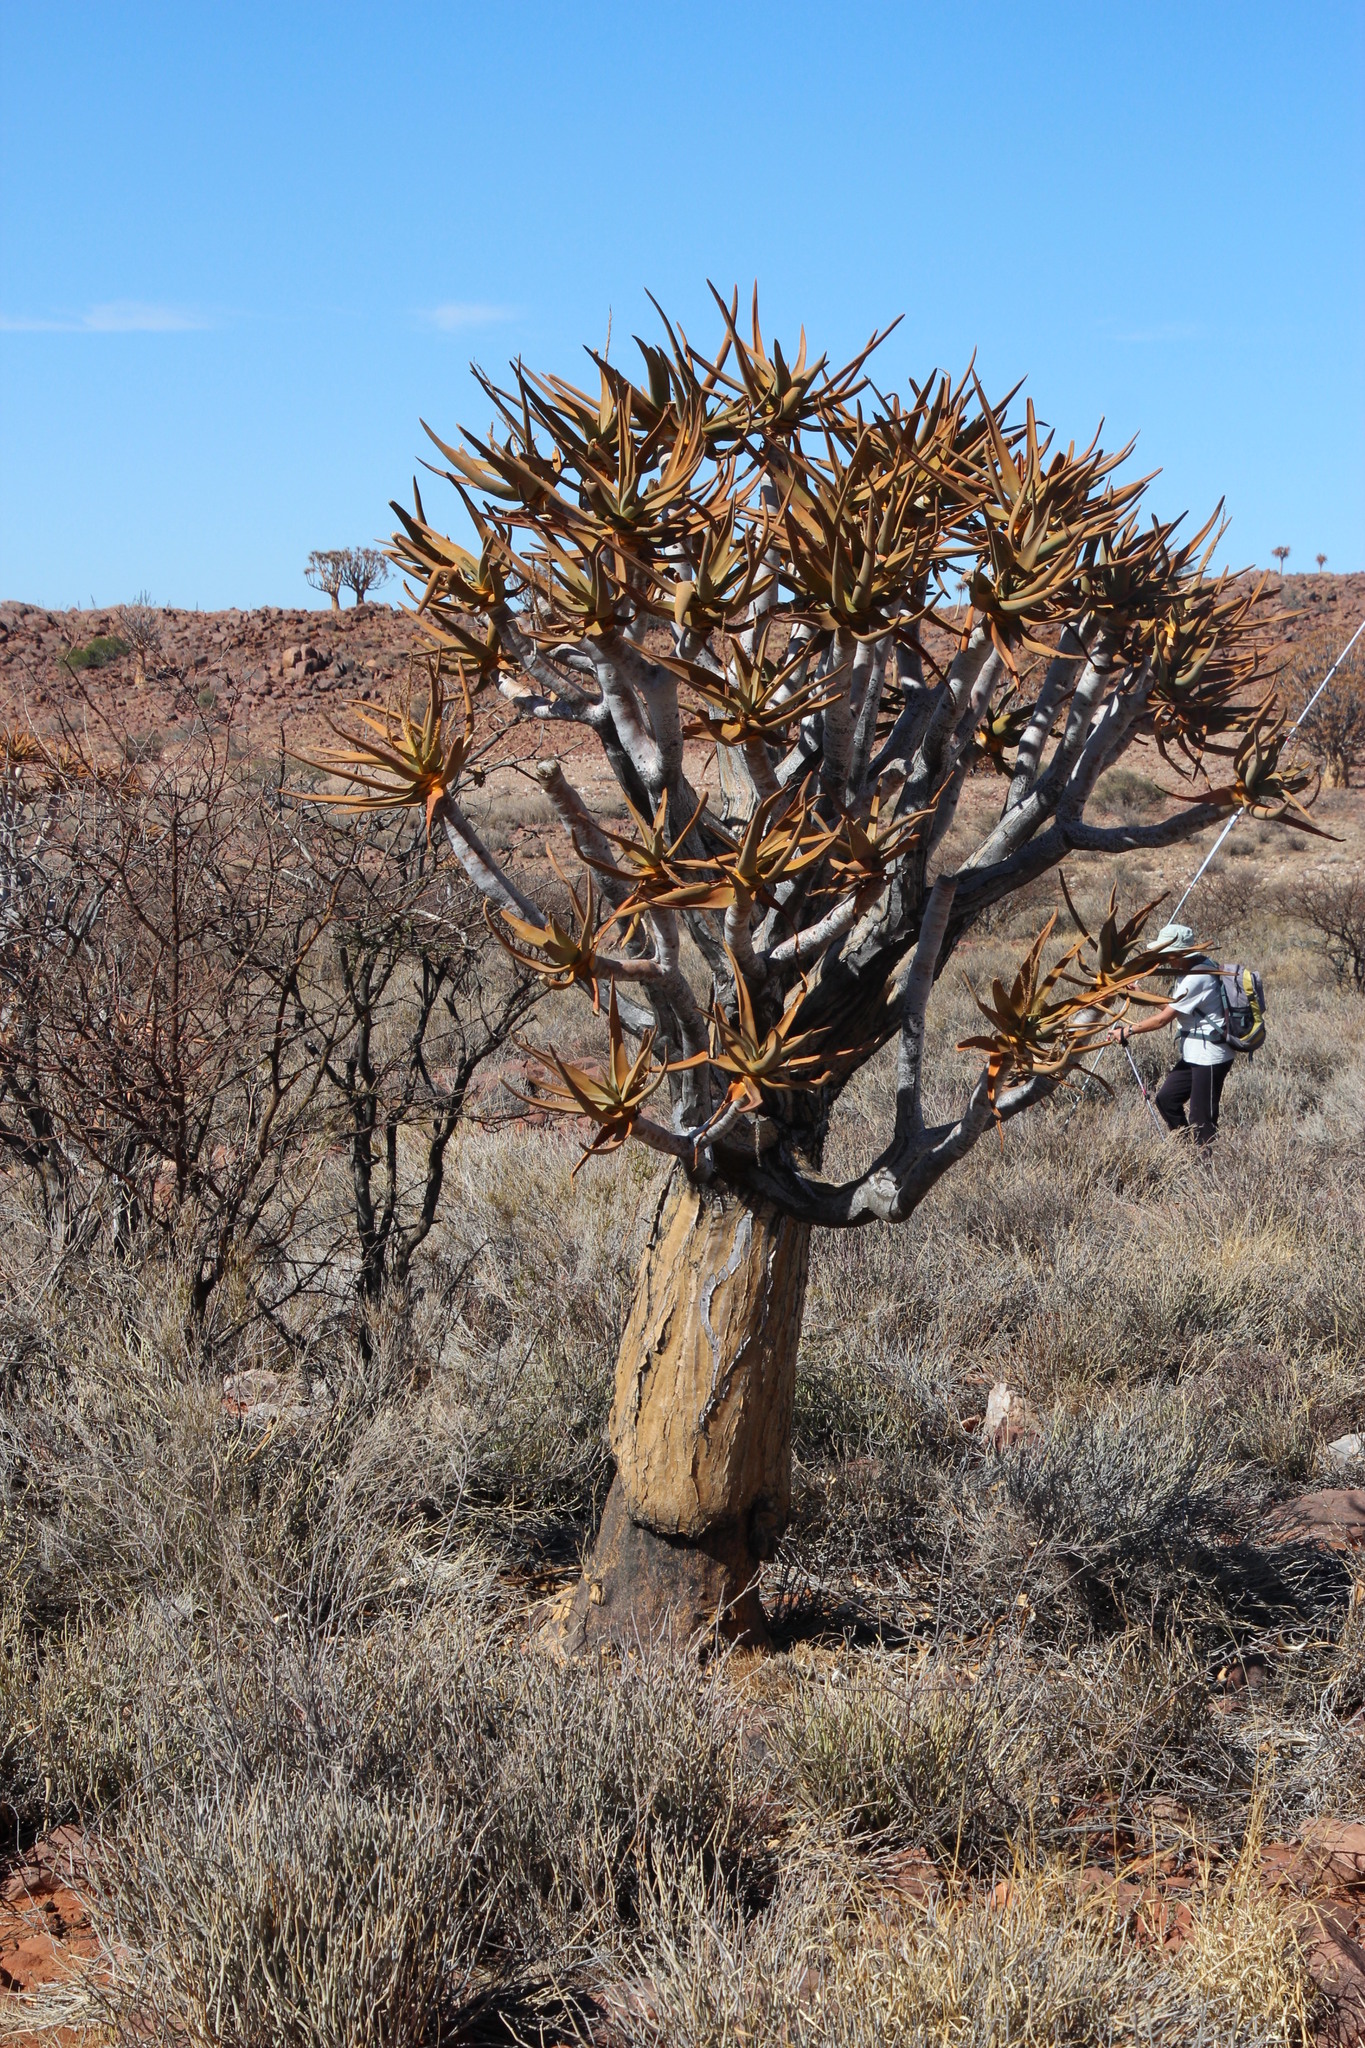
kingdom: Animalia
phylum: Chordata
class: Mammalia
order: Rodentia
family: Hystricidae
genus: Hystrix
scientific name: Hystrix africaeaustralis
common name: Cape porcupine
